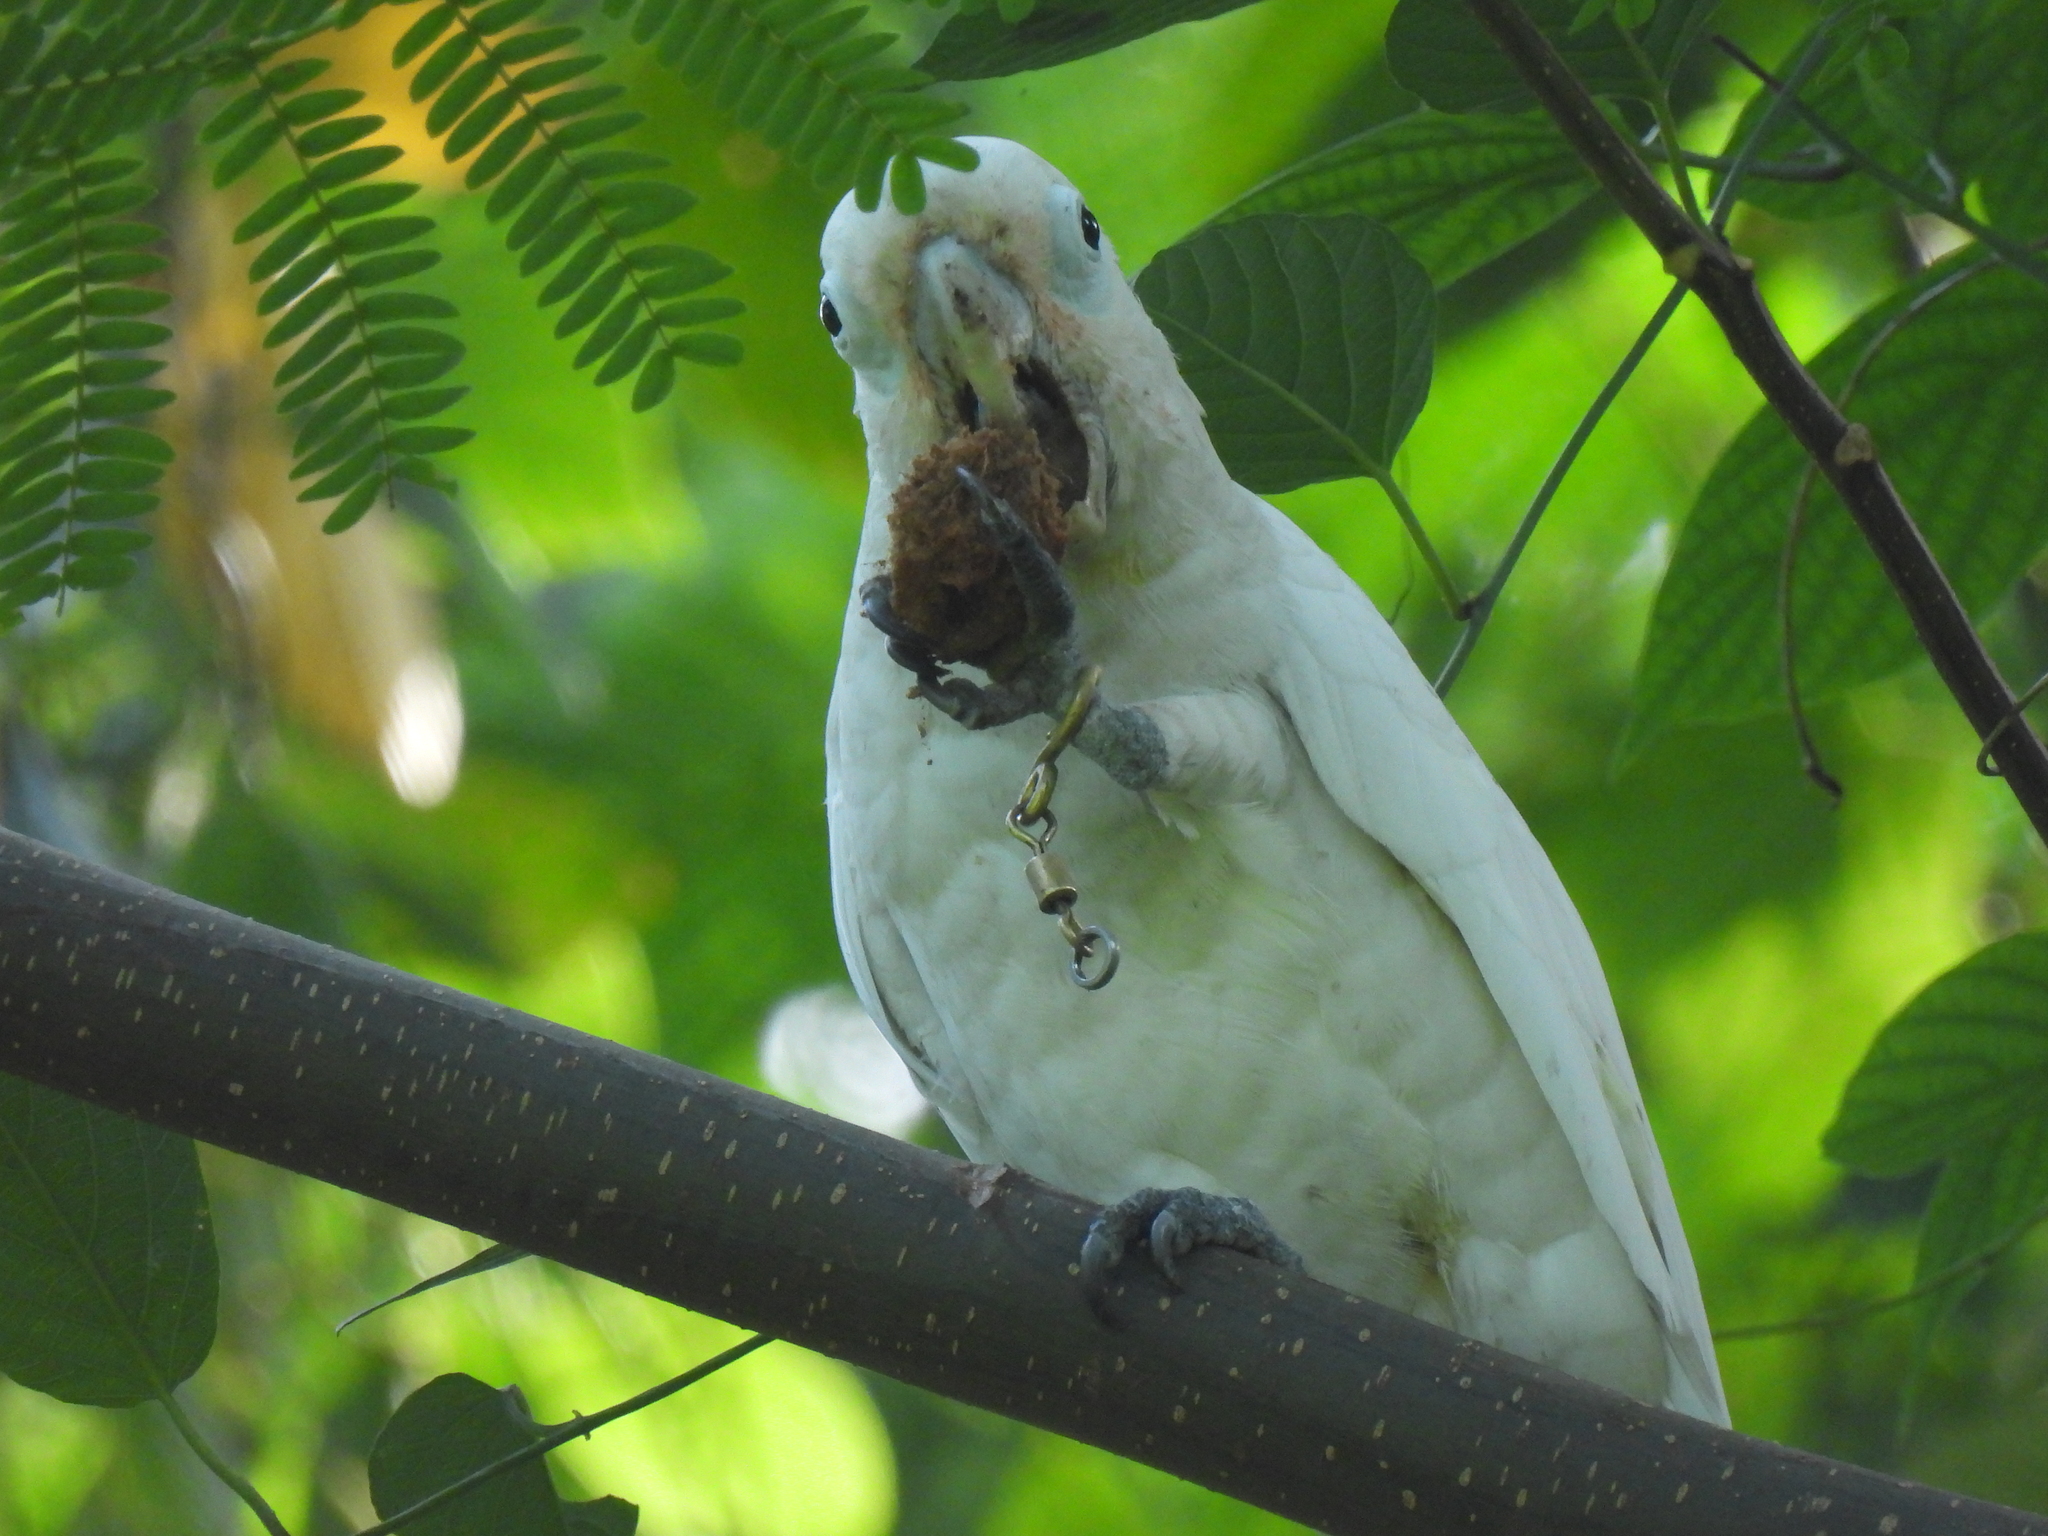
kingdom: Animalia
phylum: Chordata
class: Aves
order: Psittaciformes
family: Psittacidae
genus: Cacatua
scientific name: Cacatua goffiniana
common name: Tanimbar corella
